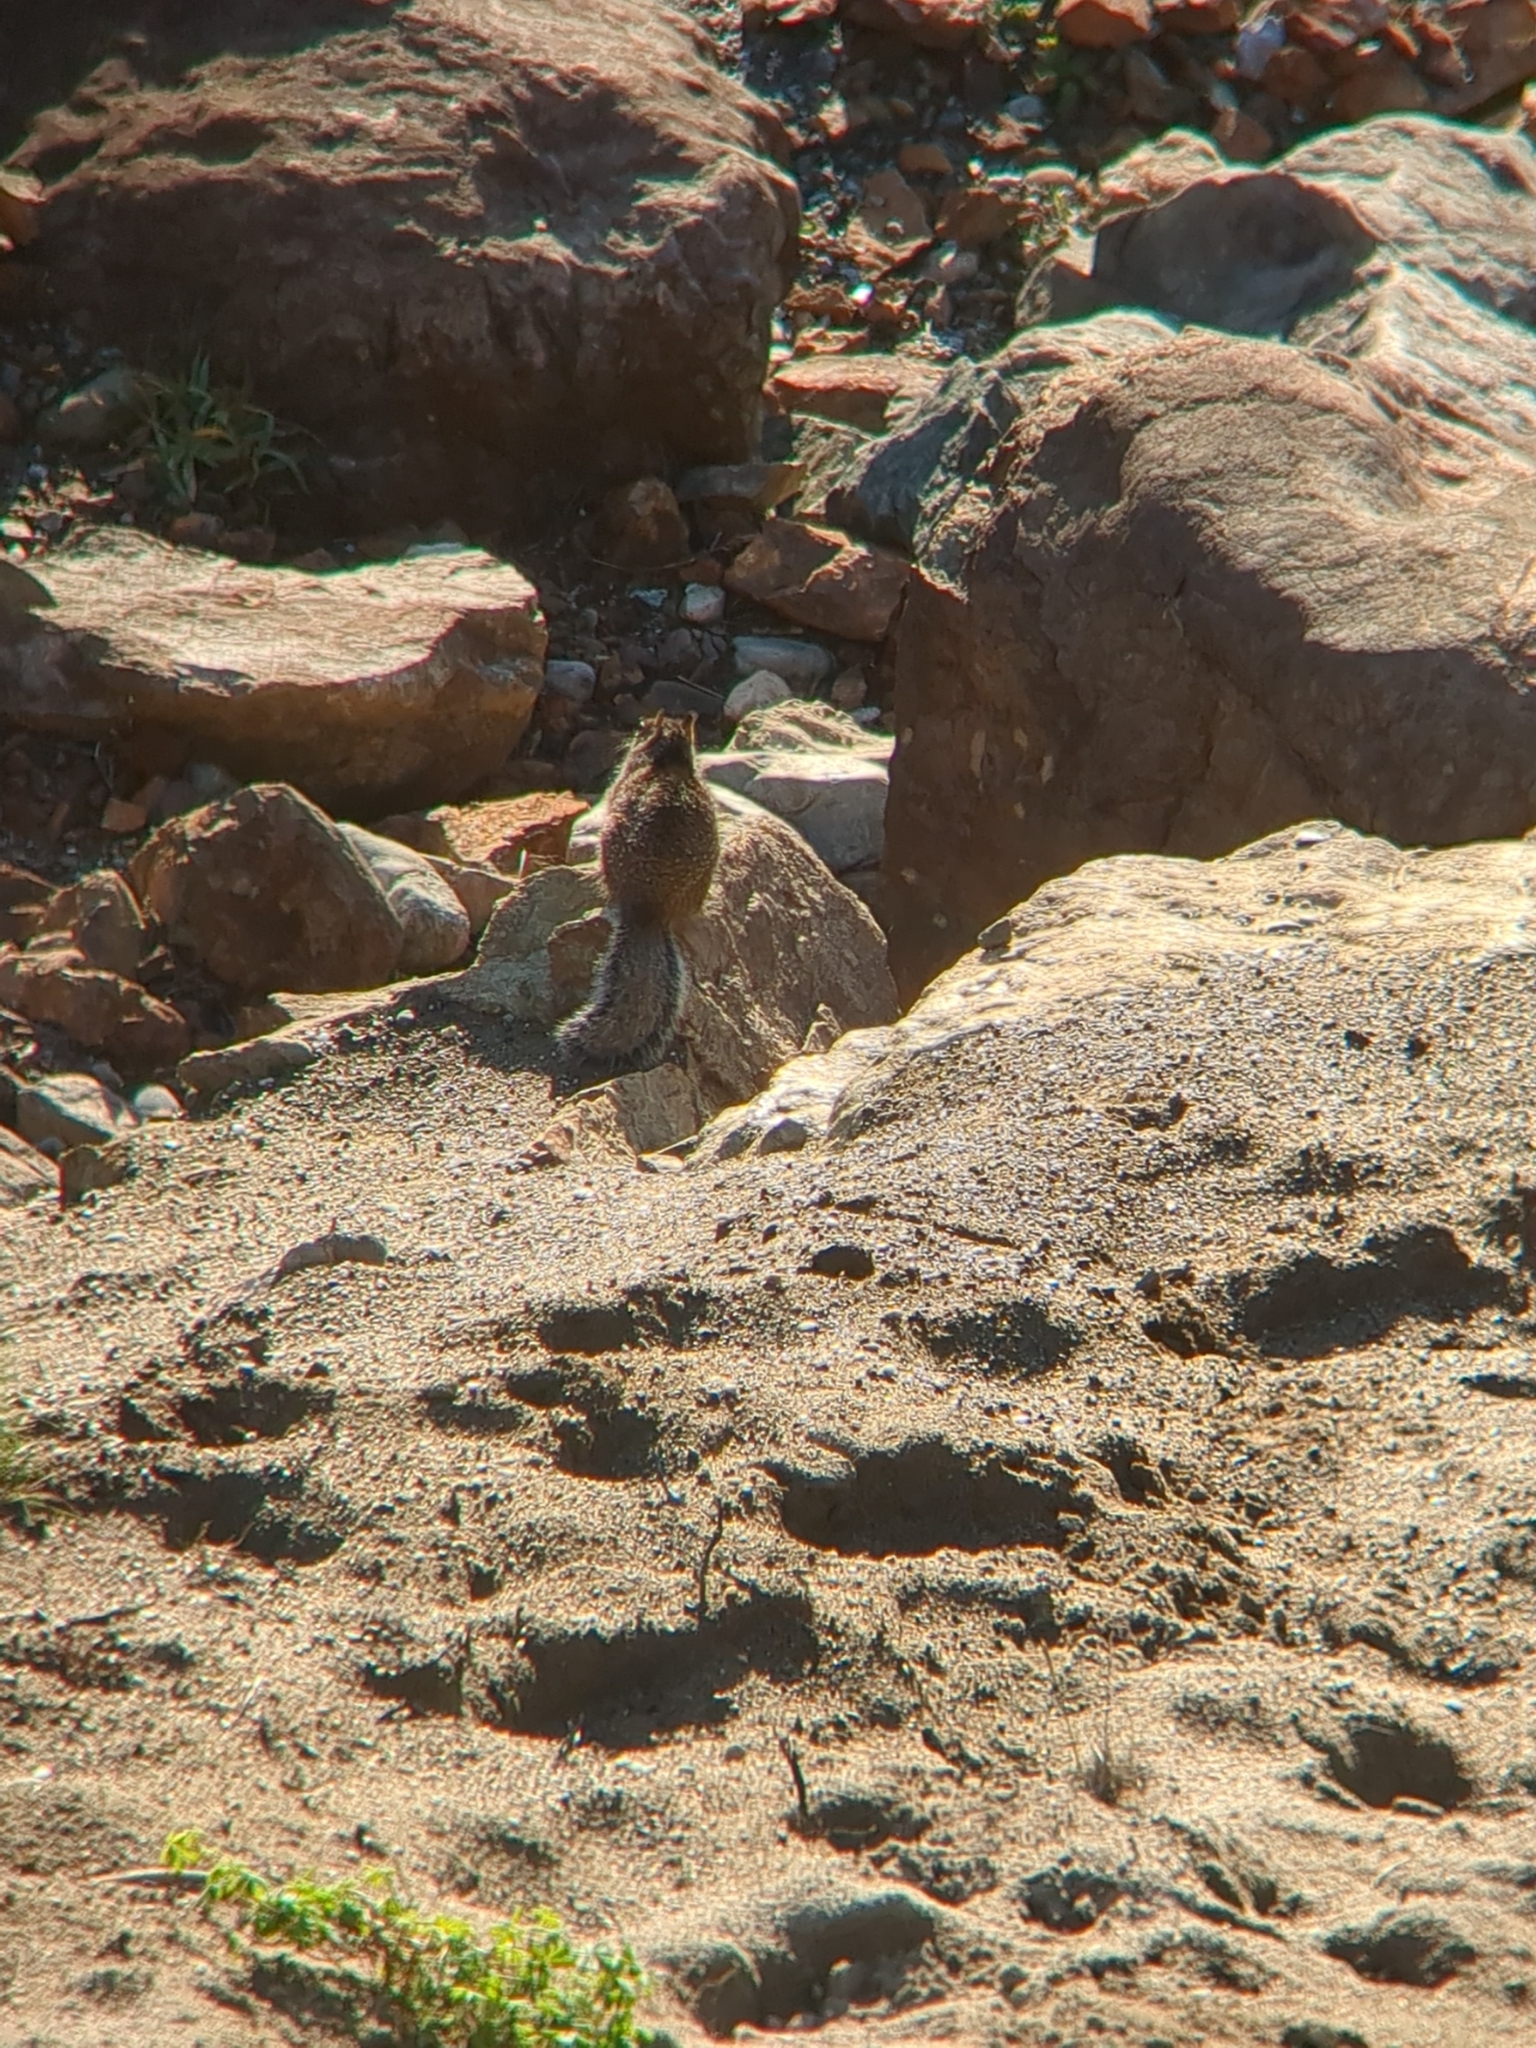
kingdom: Animalia
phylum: Chordata
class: Mammalia
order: Rodentia
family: Sciuridae
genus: Otospermophilus
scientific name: Otospermophilus beecheyi
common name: California ground squirrel
